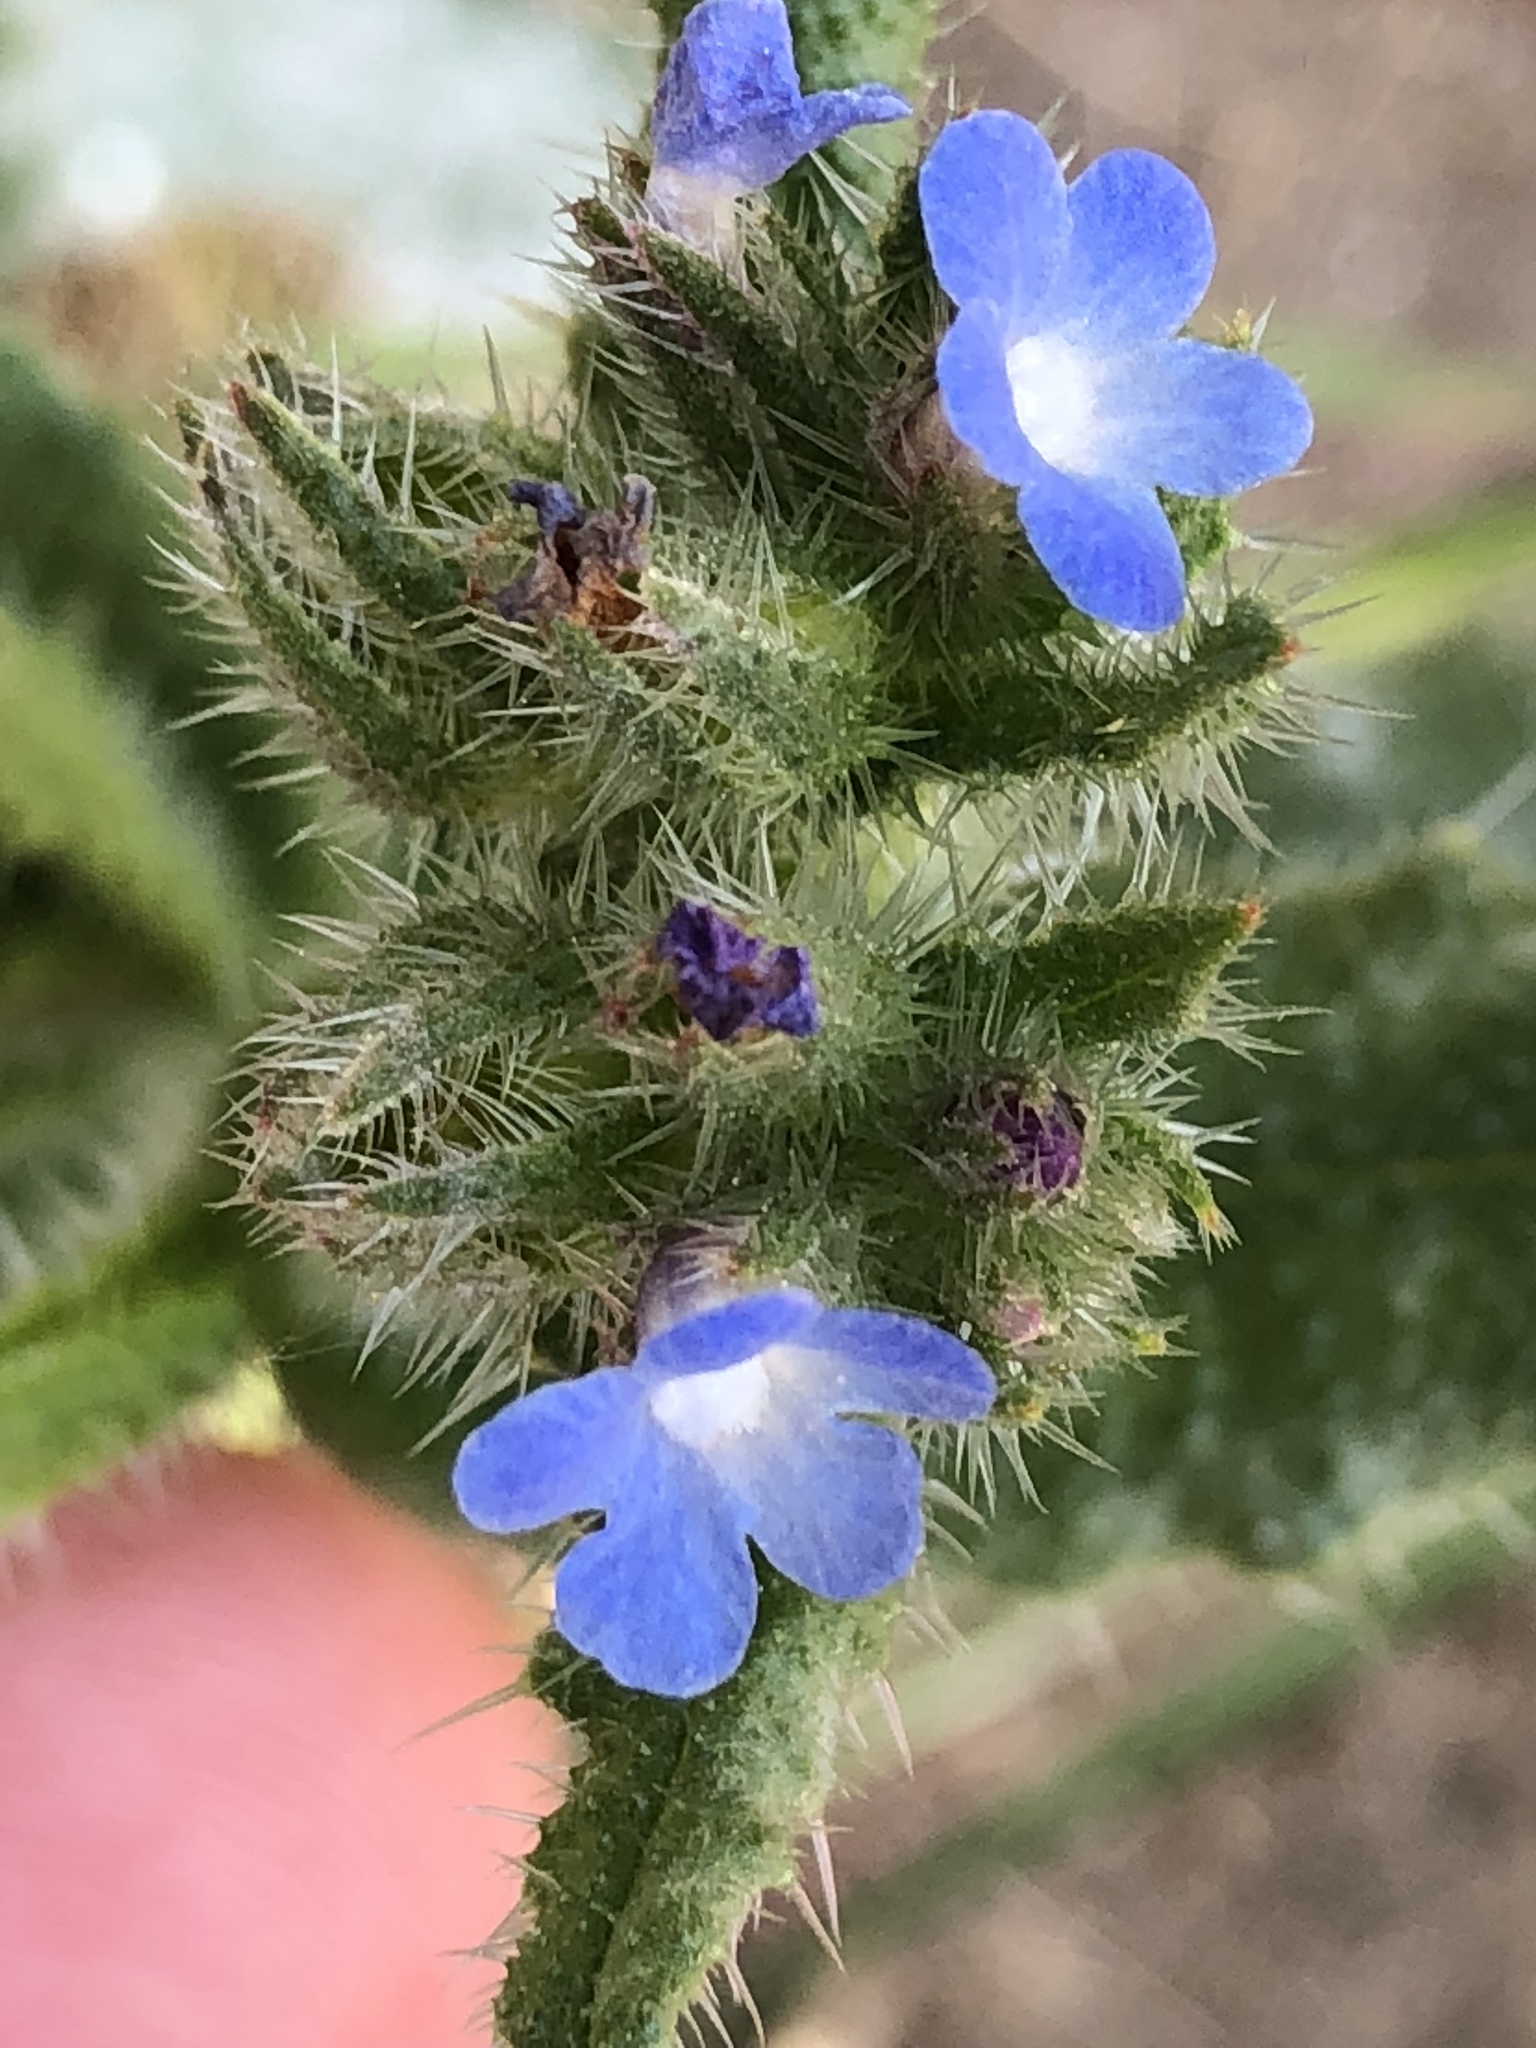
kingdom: Plantae
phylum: Tracheophyta
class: Magnoliopsida
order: Boraginales
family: Boraginaceae
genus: Lycopsis
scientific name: Lycopsis arvensis
